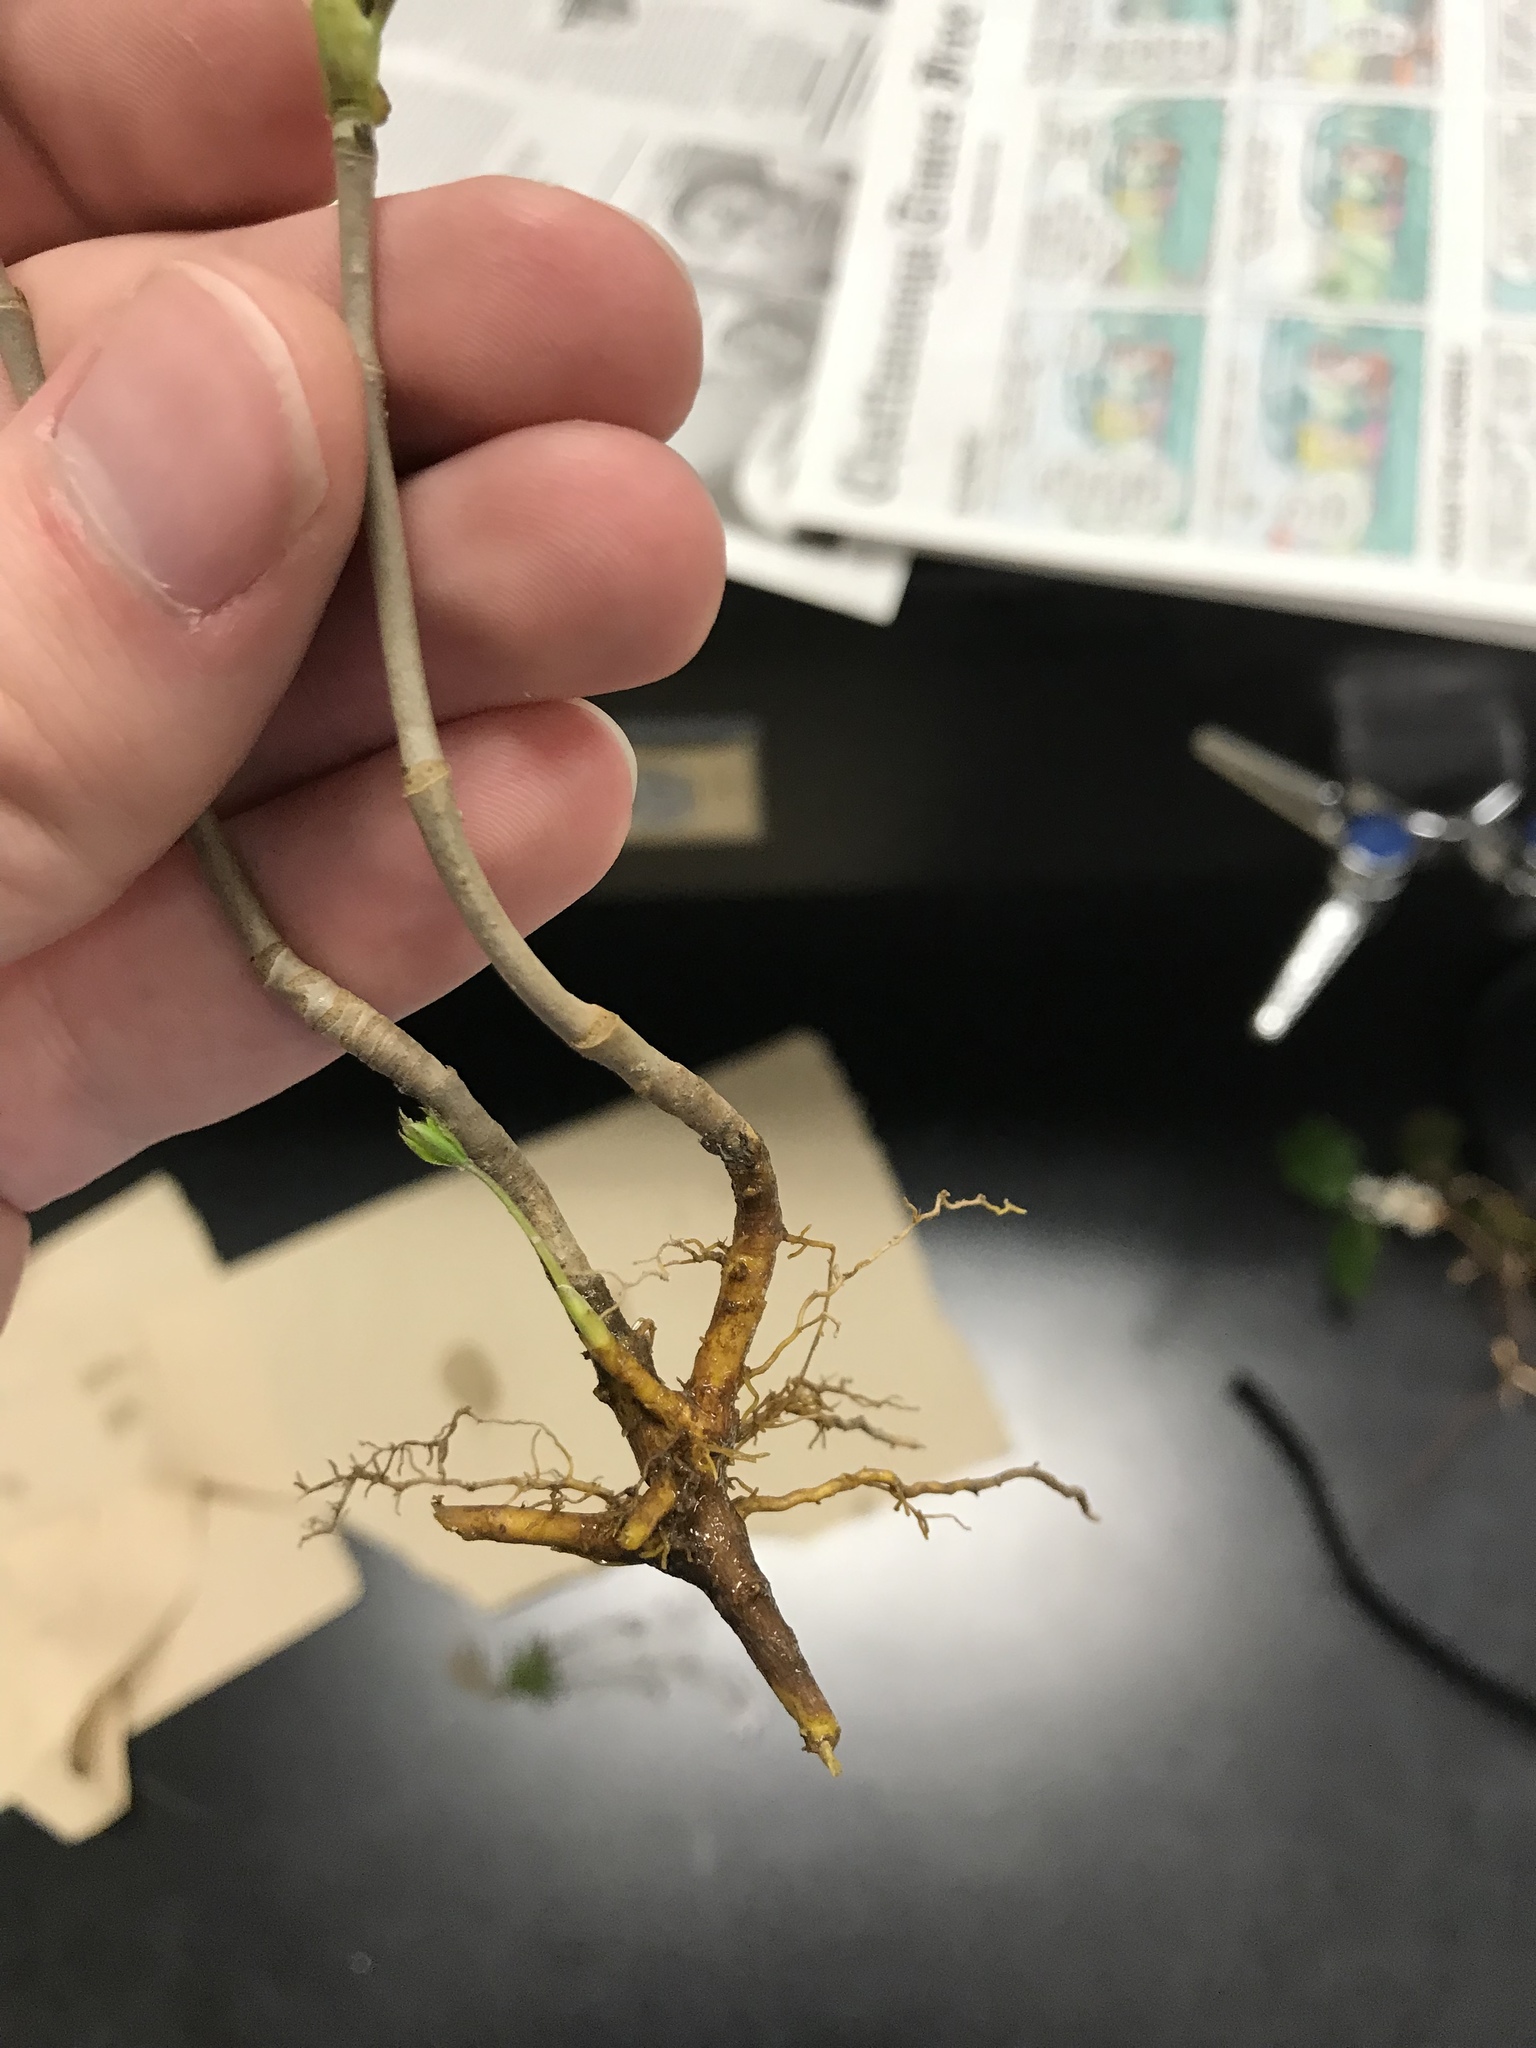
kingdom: Plantae
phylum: Tracheophyta
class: Magnoliopsida
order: Ranunculales
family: Ranunculaceae
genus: Xanthorhiza
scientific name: Xanthorhiza simplicissima
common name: Yellowroot
